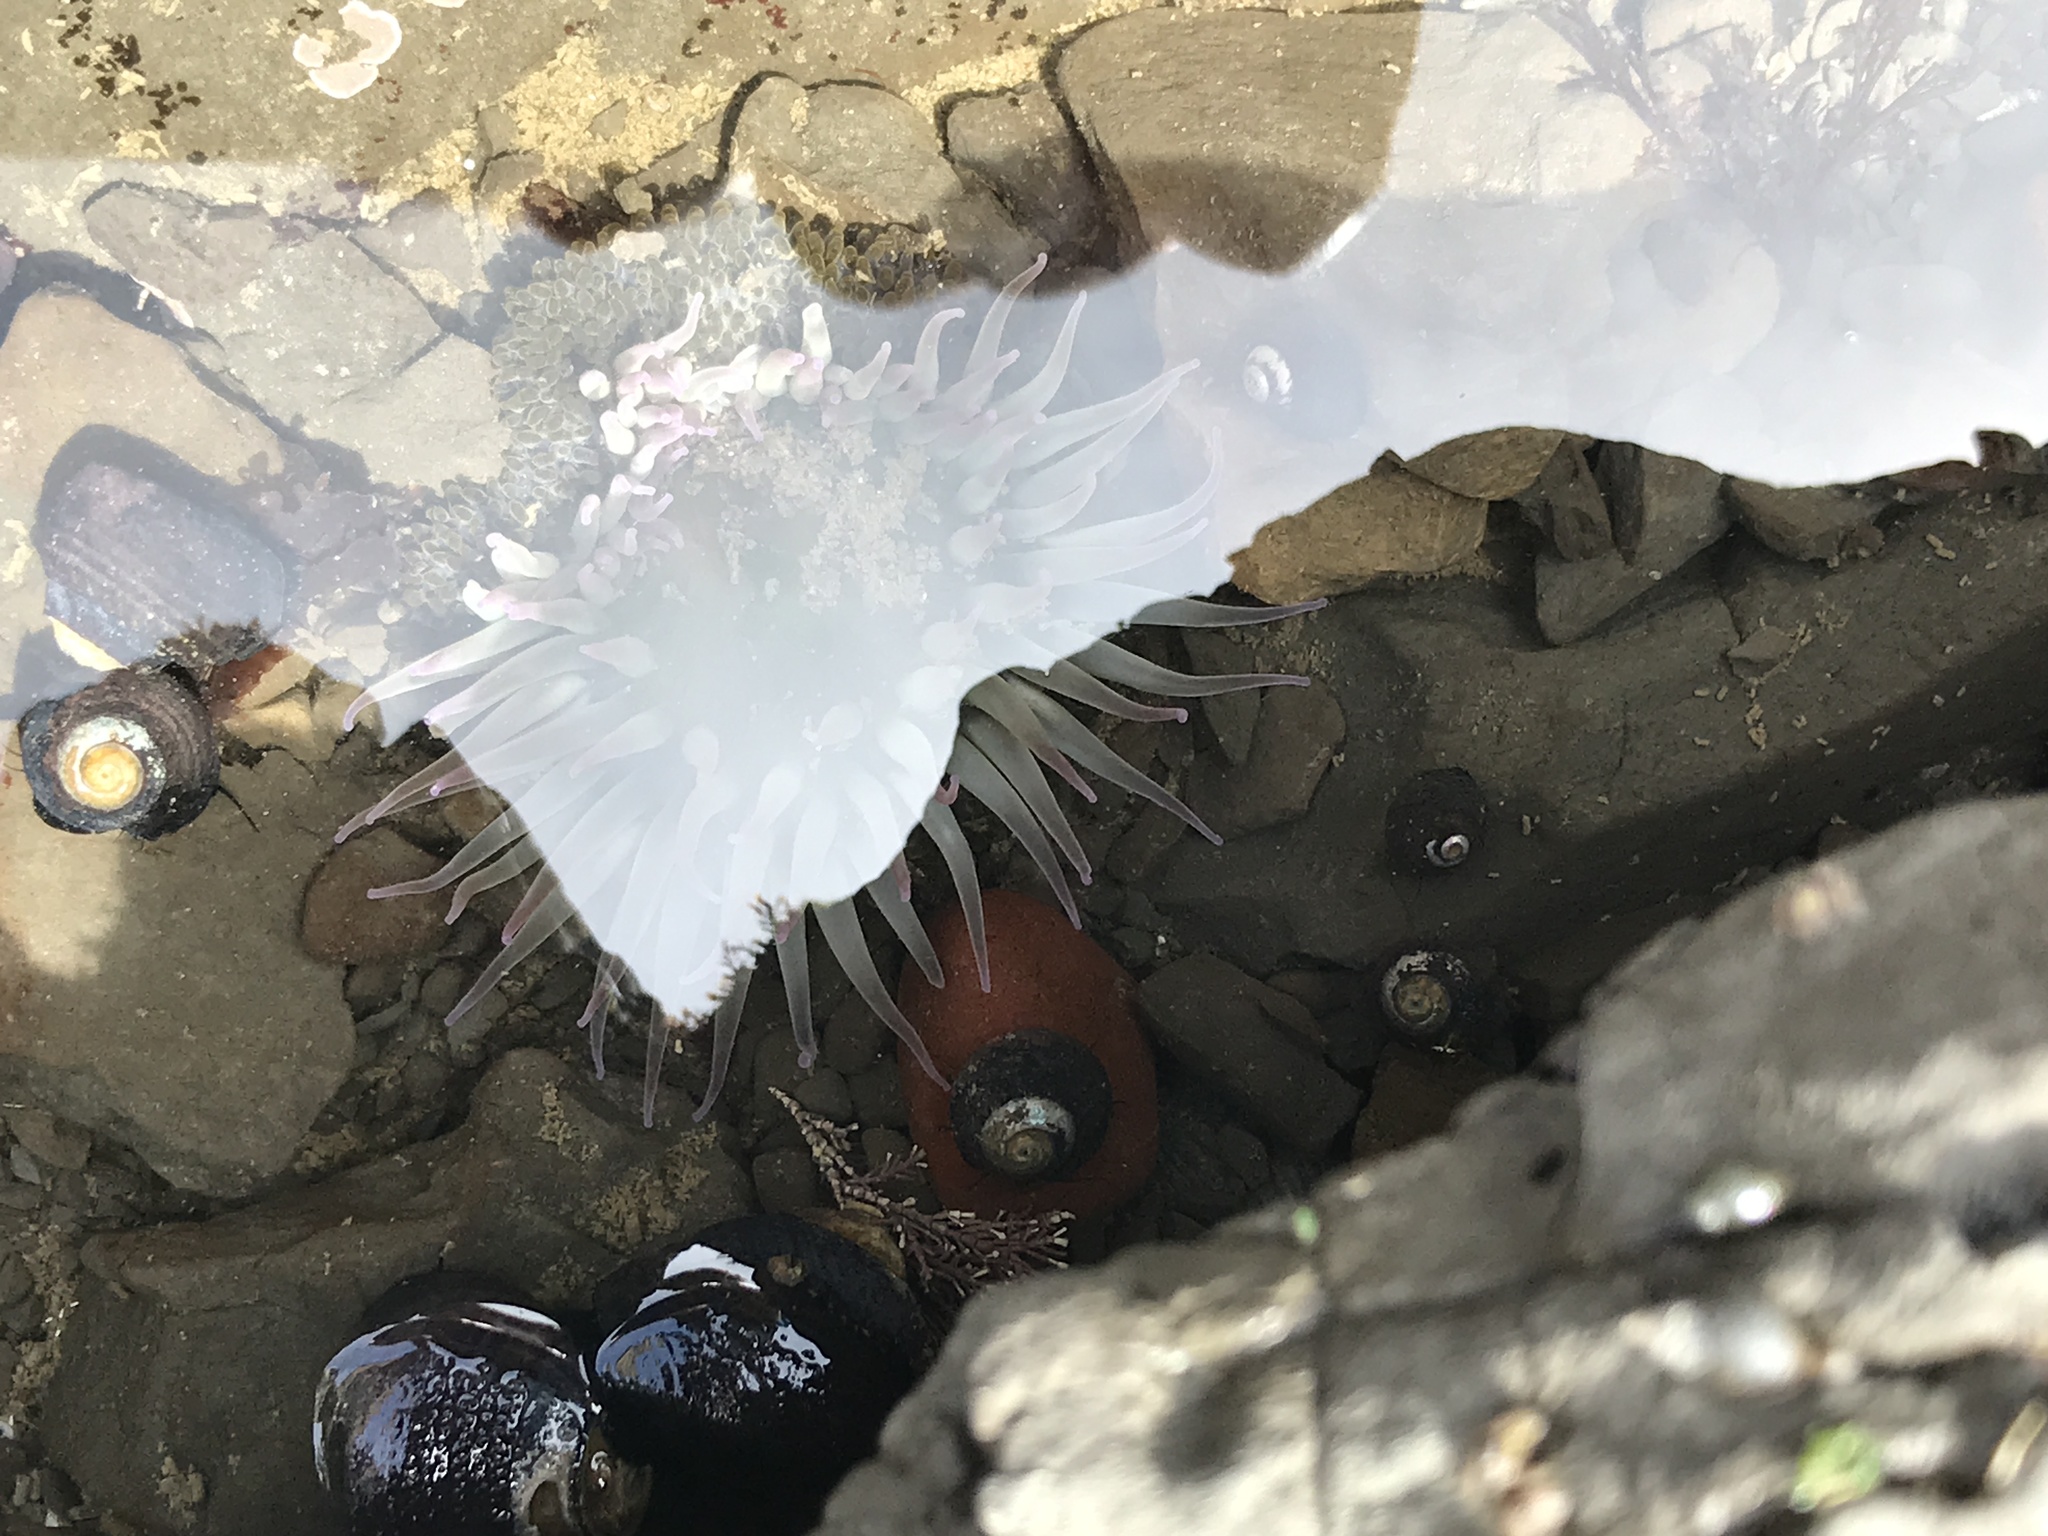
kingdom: Animalia
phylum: Cnidaria
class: Anthozoa
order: Actiniaria
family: Actiniidae
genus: Anthopleura
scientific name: Anthopleura elegantissima
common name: Clonal anemone
